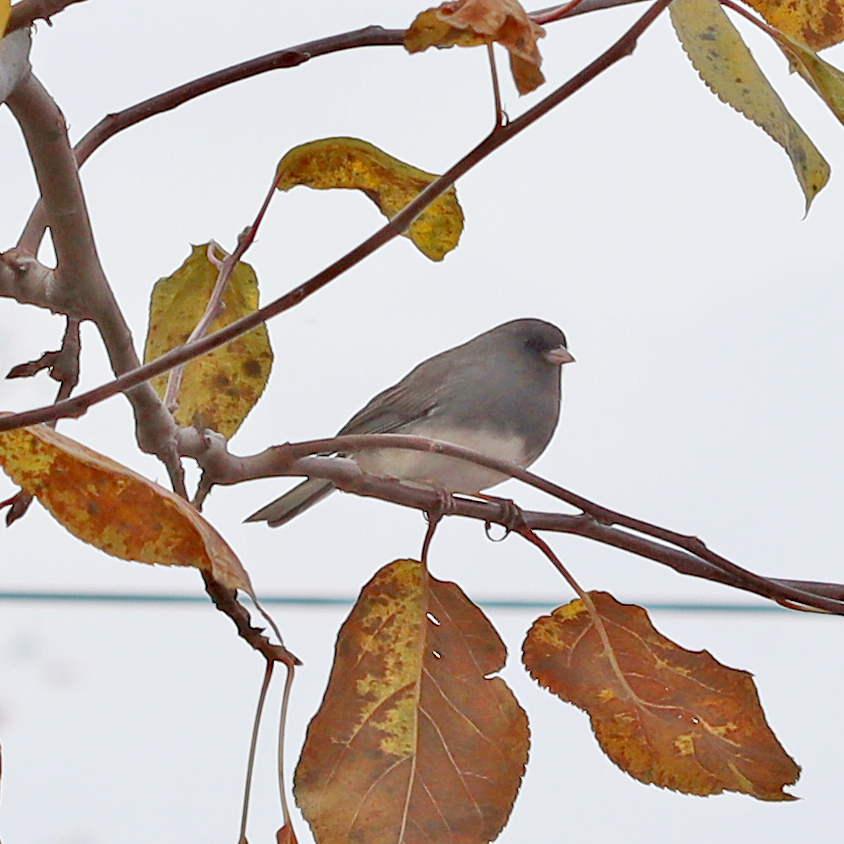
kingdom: Animalia
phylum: Chordata
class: Aves
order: Passeriformes
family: Passerellidae
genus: Junco
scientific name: Junco hyemalis
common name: Dark-eyed junco
